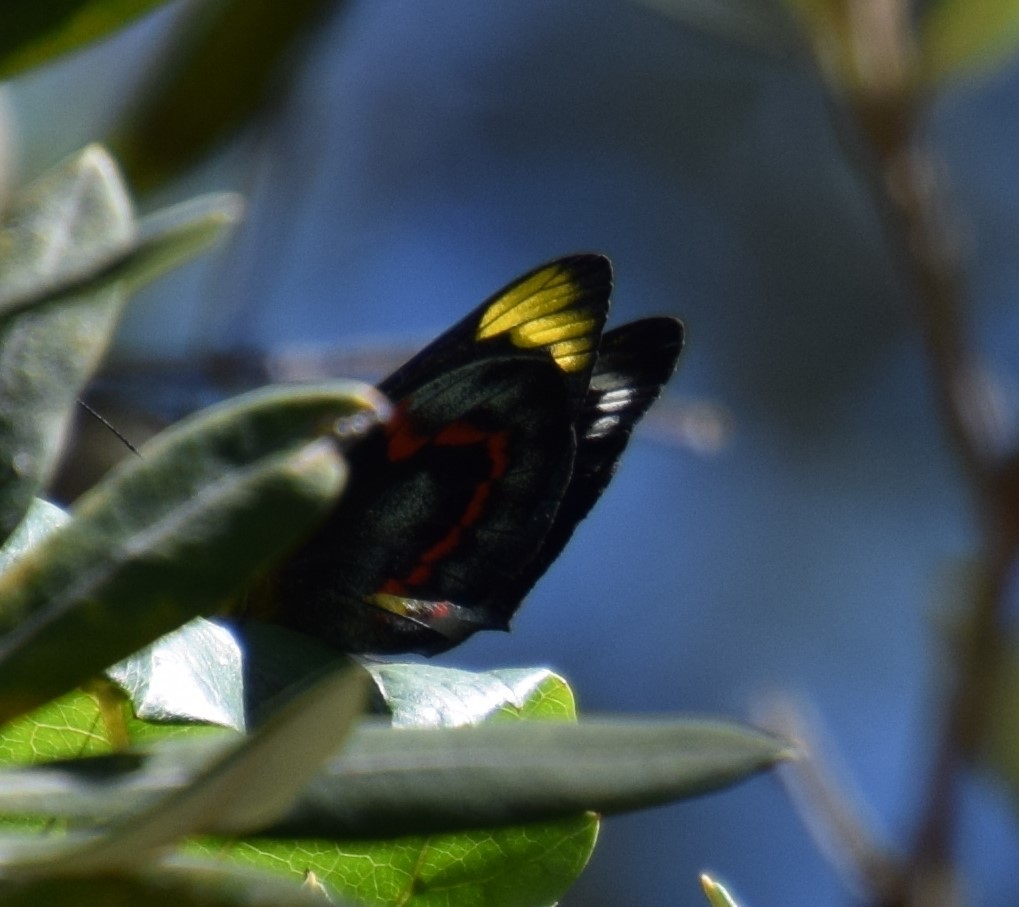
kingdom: Animalia
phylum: Arthropoda
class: Insecta
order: Lepidoptera
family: Pieridae
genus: Delias
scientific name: Delias nigrina
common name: Black jezebel
